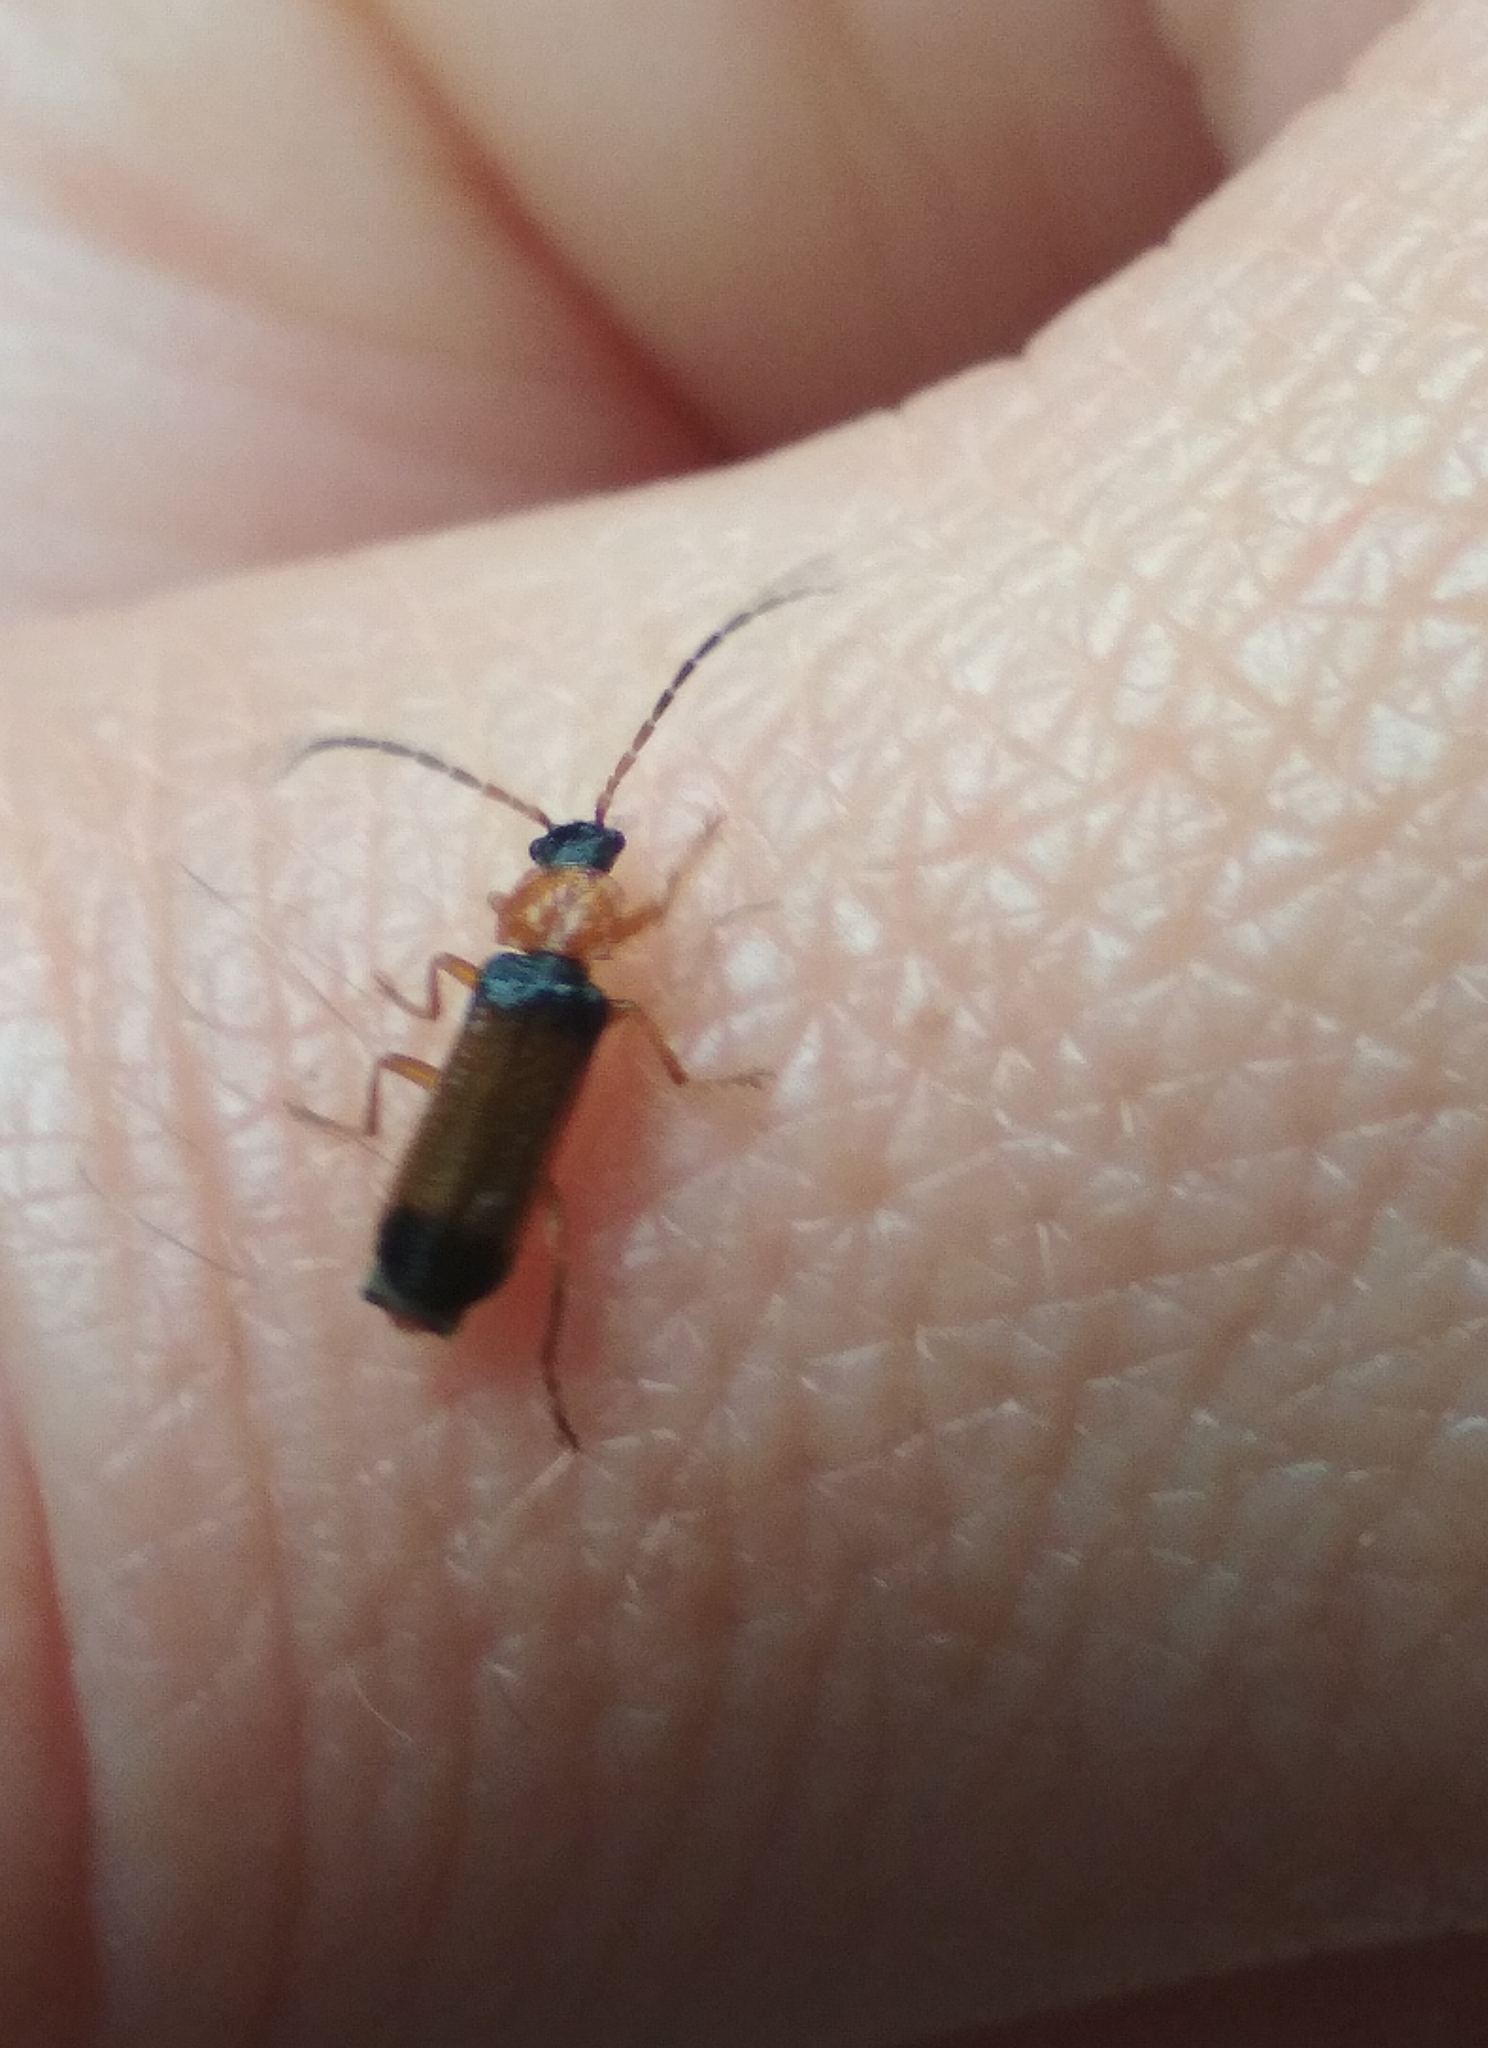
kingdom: Animalia
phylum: Arthropoda
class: Insecta
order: Coleoptera
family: Cantharidae
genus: Cratosilis
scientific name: Cratosilis laeta
